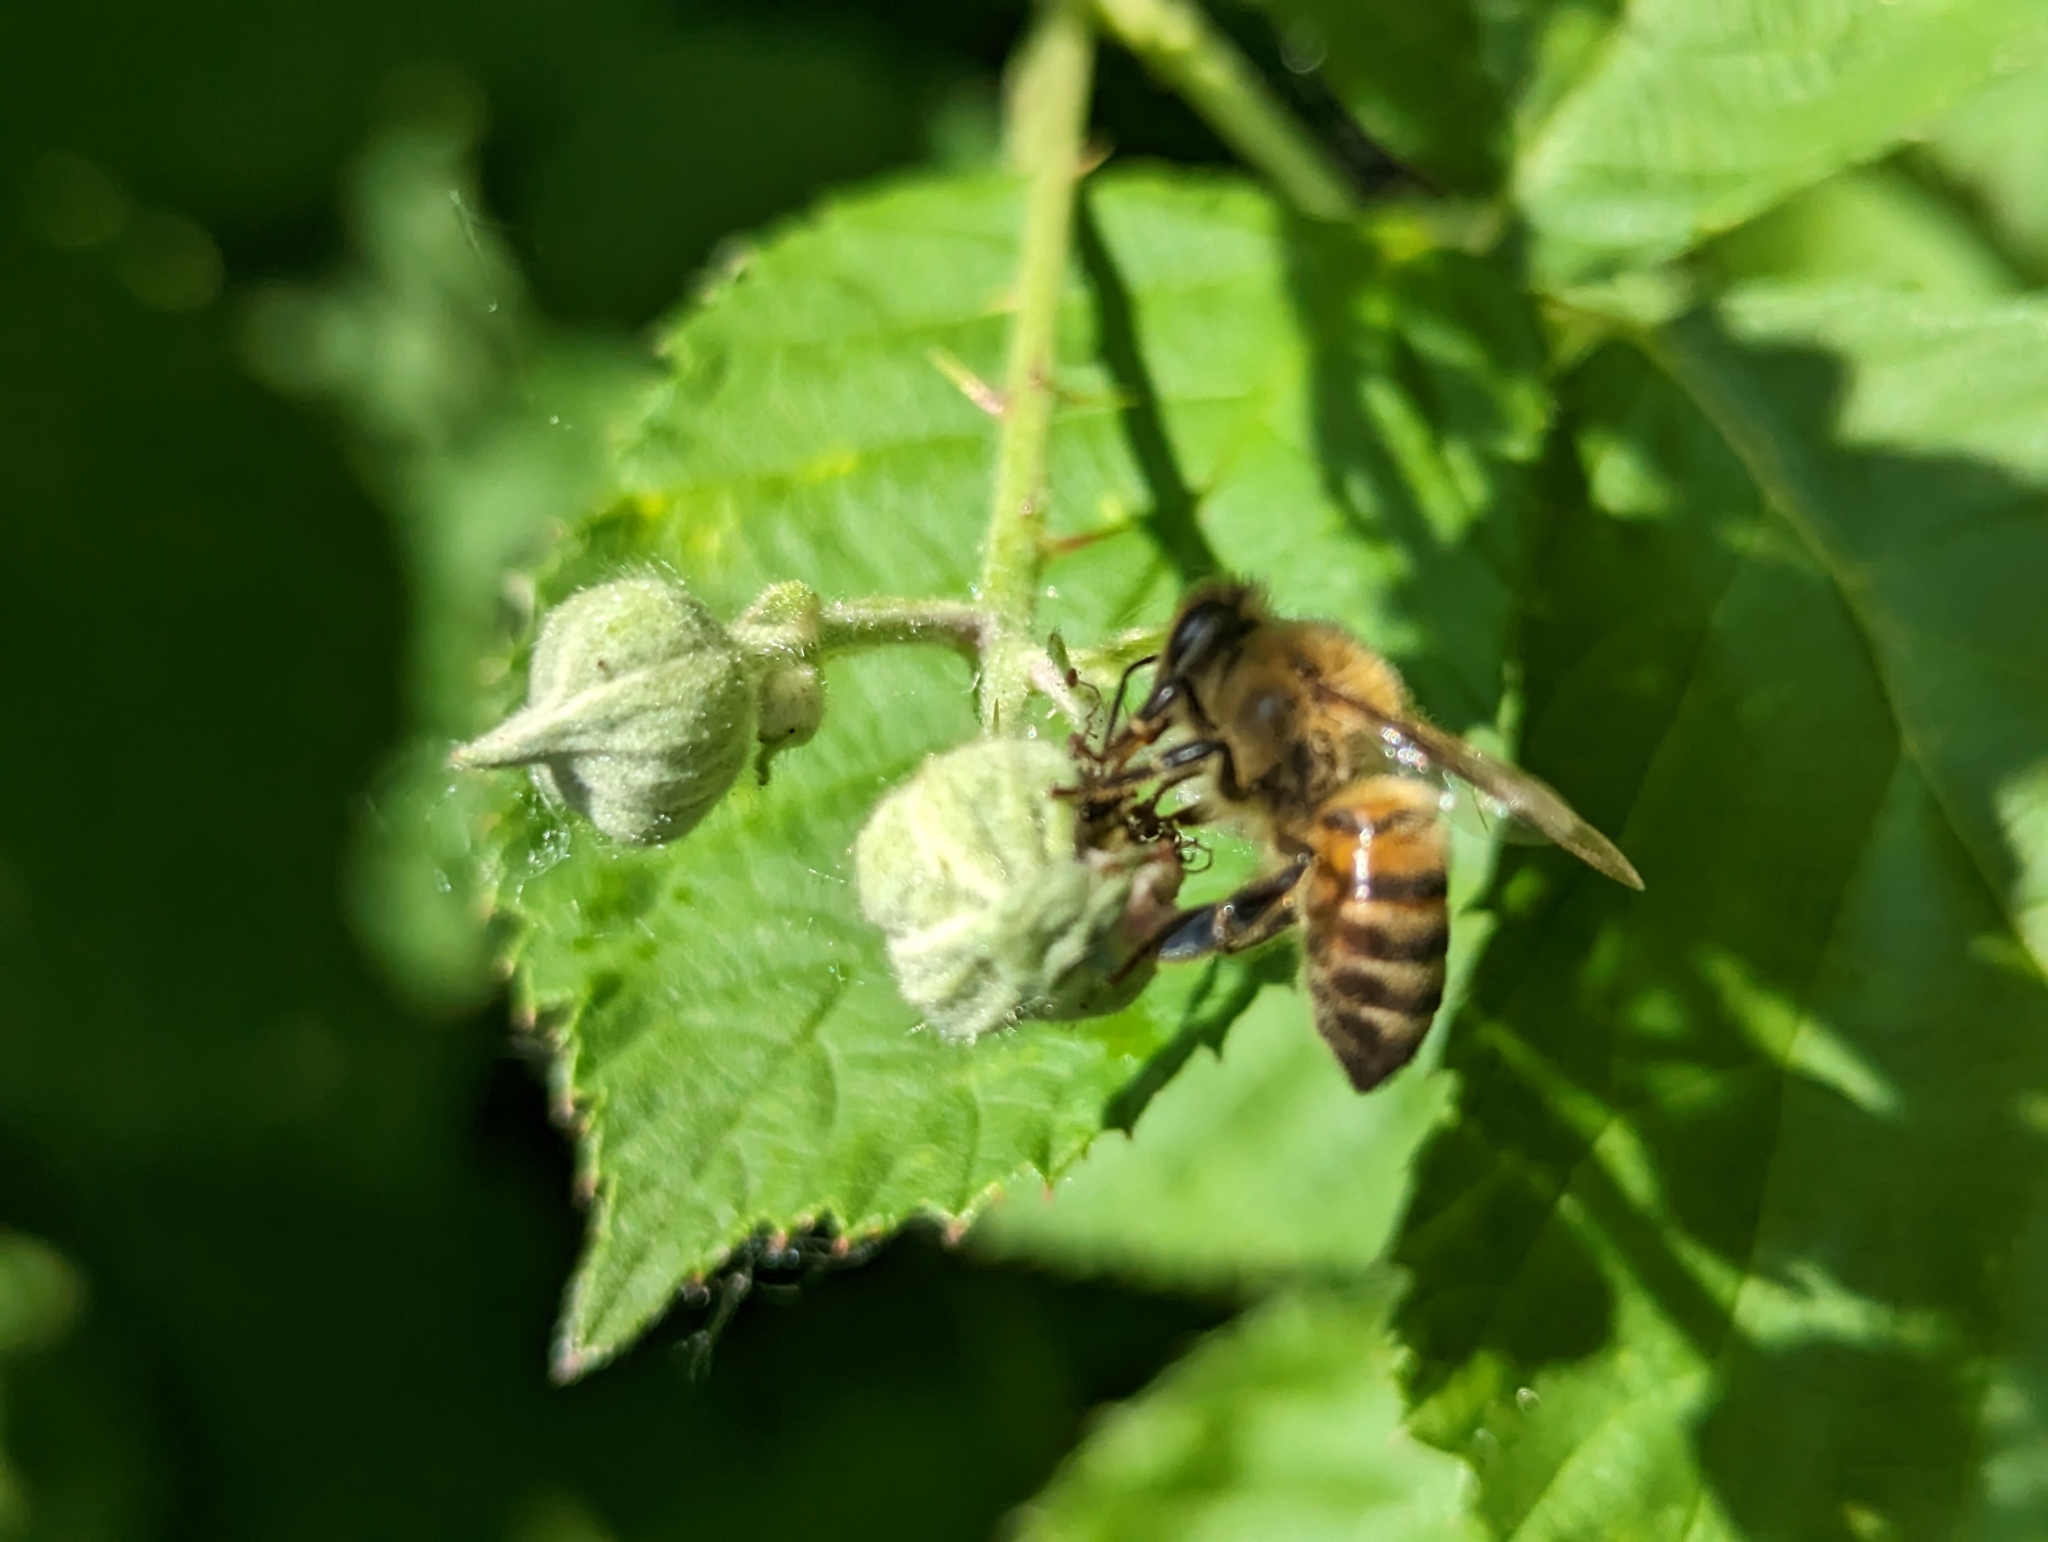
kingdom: Animalia
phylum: Arthropoda
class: Insecta
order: Hymenoptera
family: Apidae
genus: Apis
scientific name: Apis mellifera
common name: Honey bee
